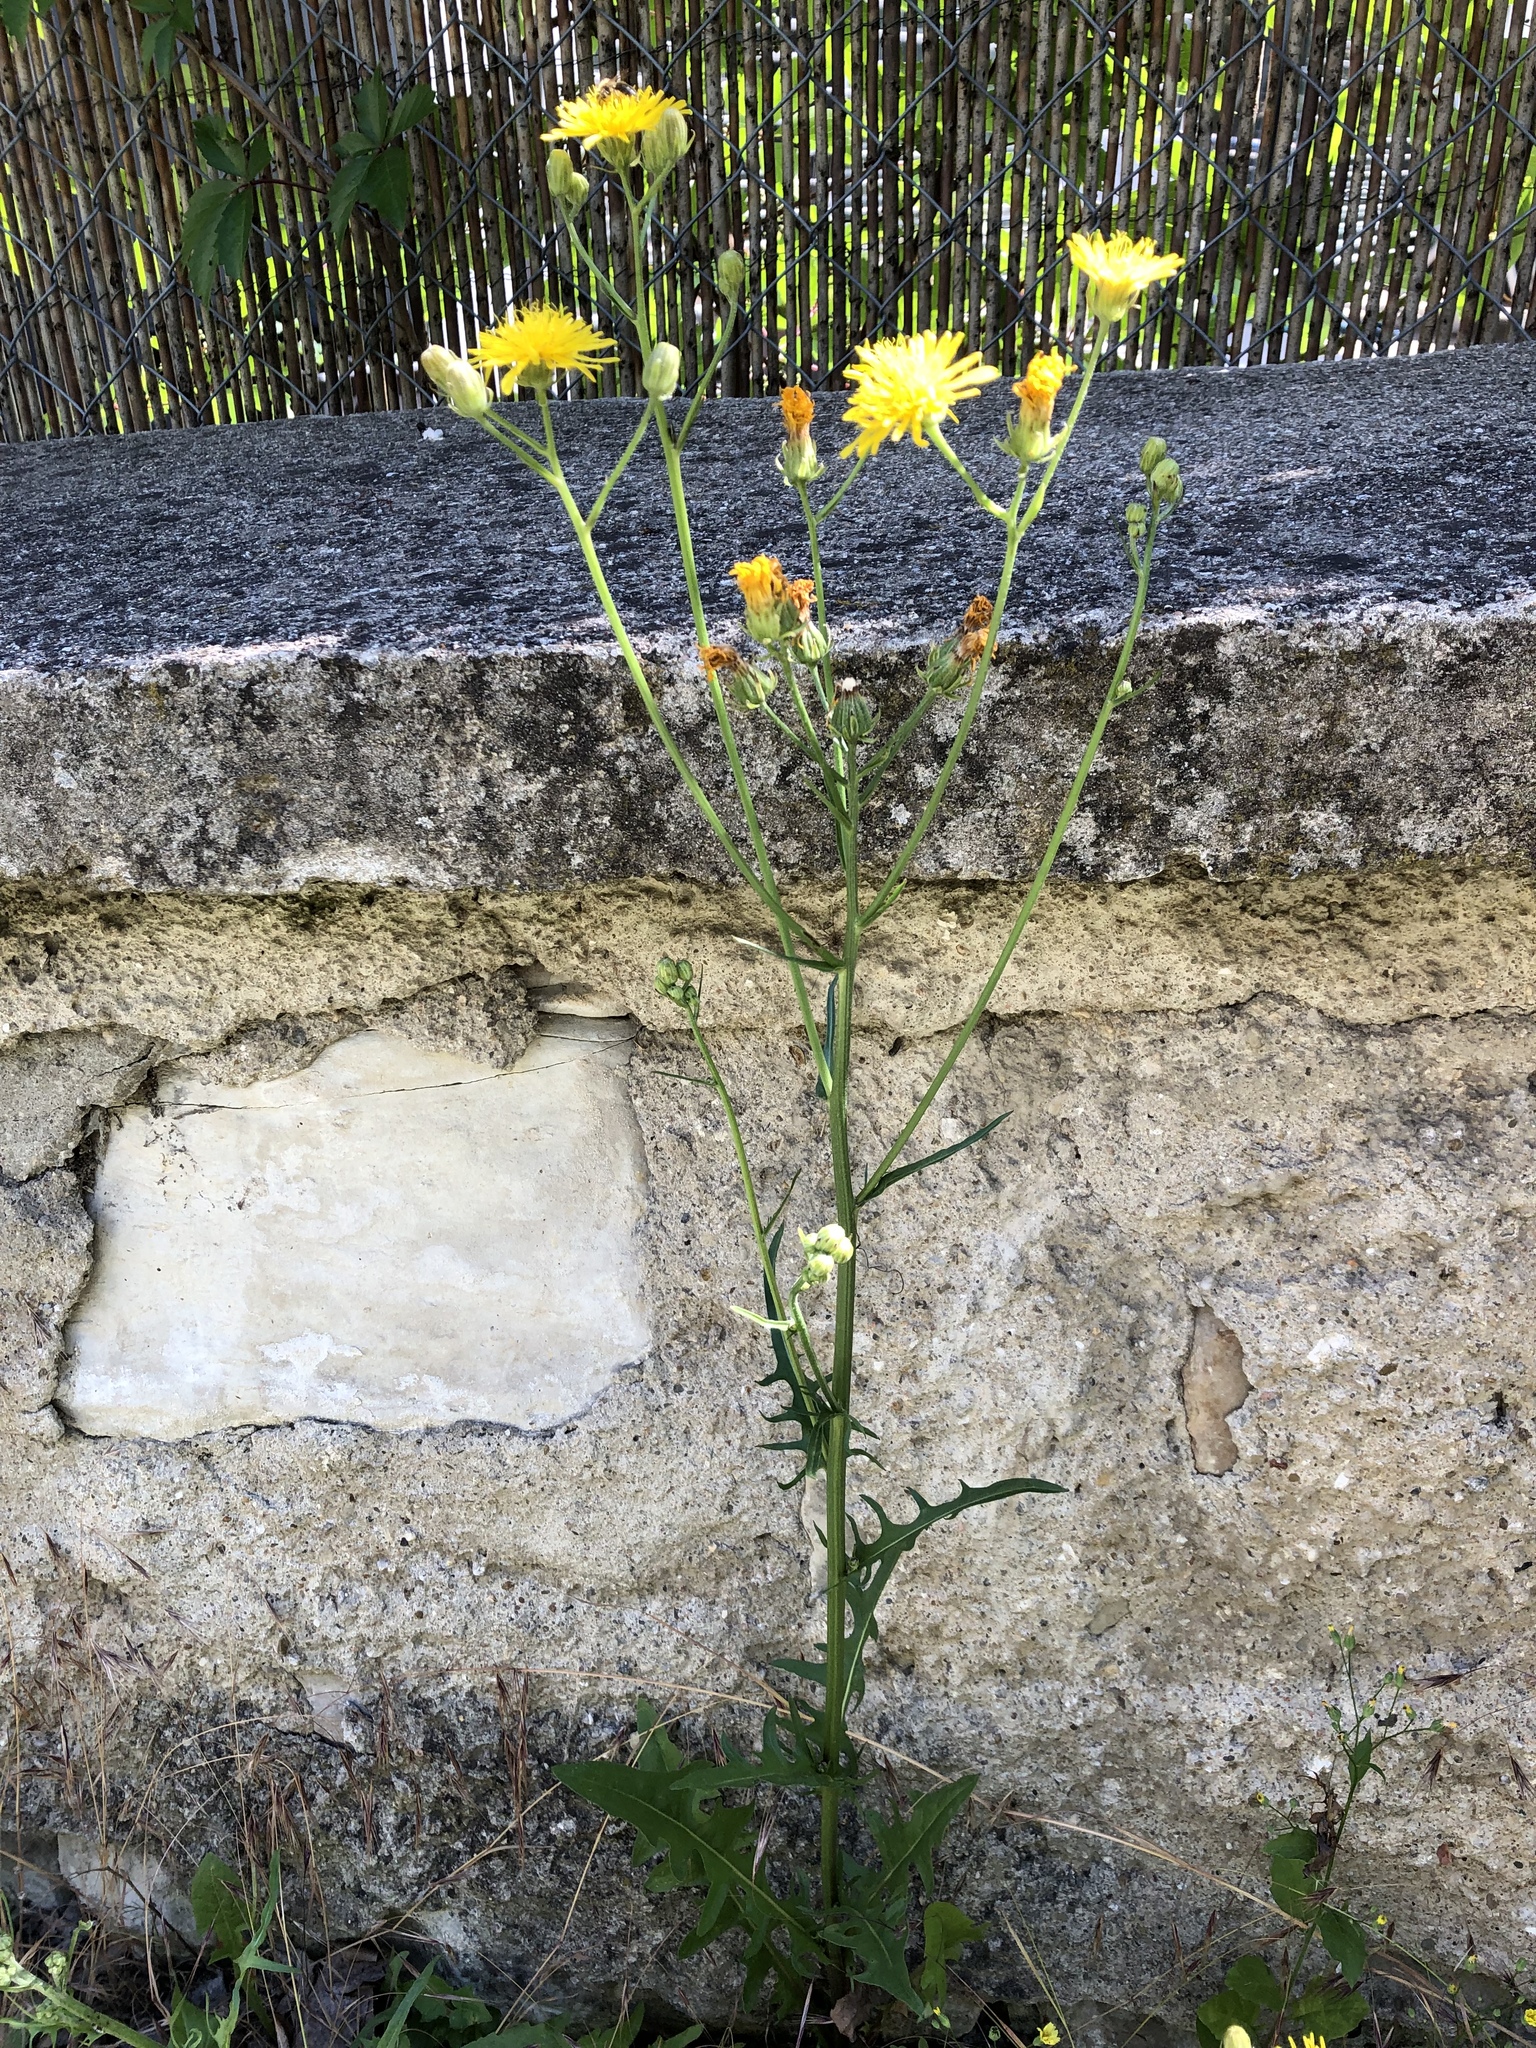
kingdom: Plantae
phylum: Tracheophyta
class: Magnoliopsida
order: Asterales
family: Asteraceae
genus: Crepis
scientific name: Crepis biennis
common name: Rough hawk's-beard
